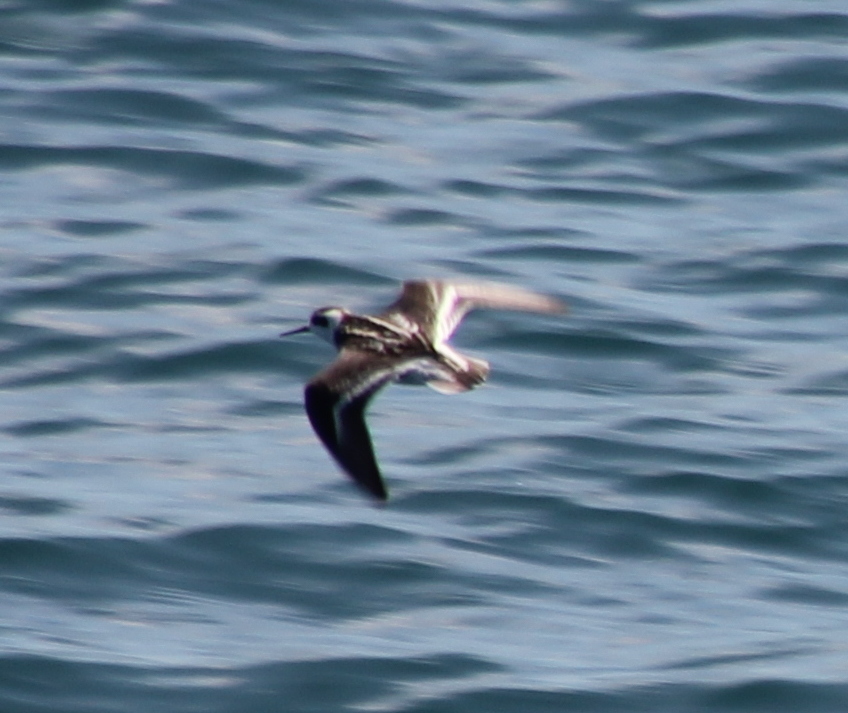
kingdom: Animalia
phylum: Chordata
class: Aves
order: Charadriiformes
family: Scolopacidae
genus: Phalaropus
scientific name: Phalaropus lobatus
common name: Red-necked phalarope
